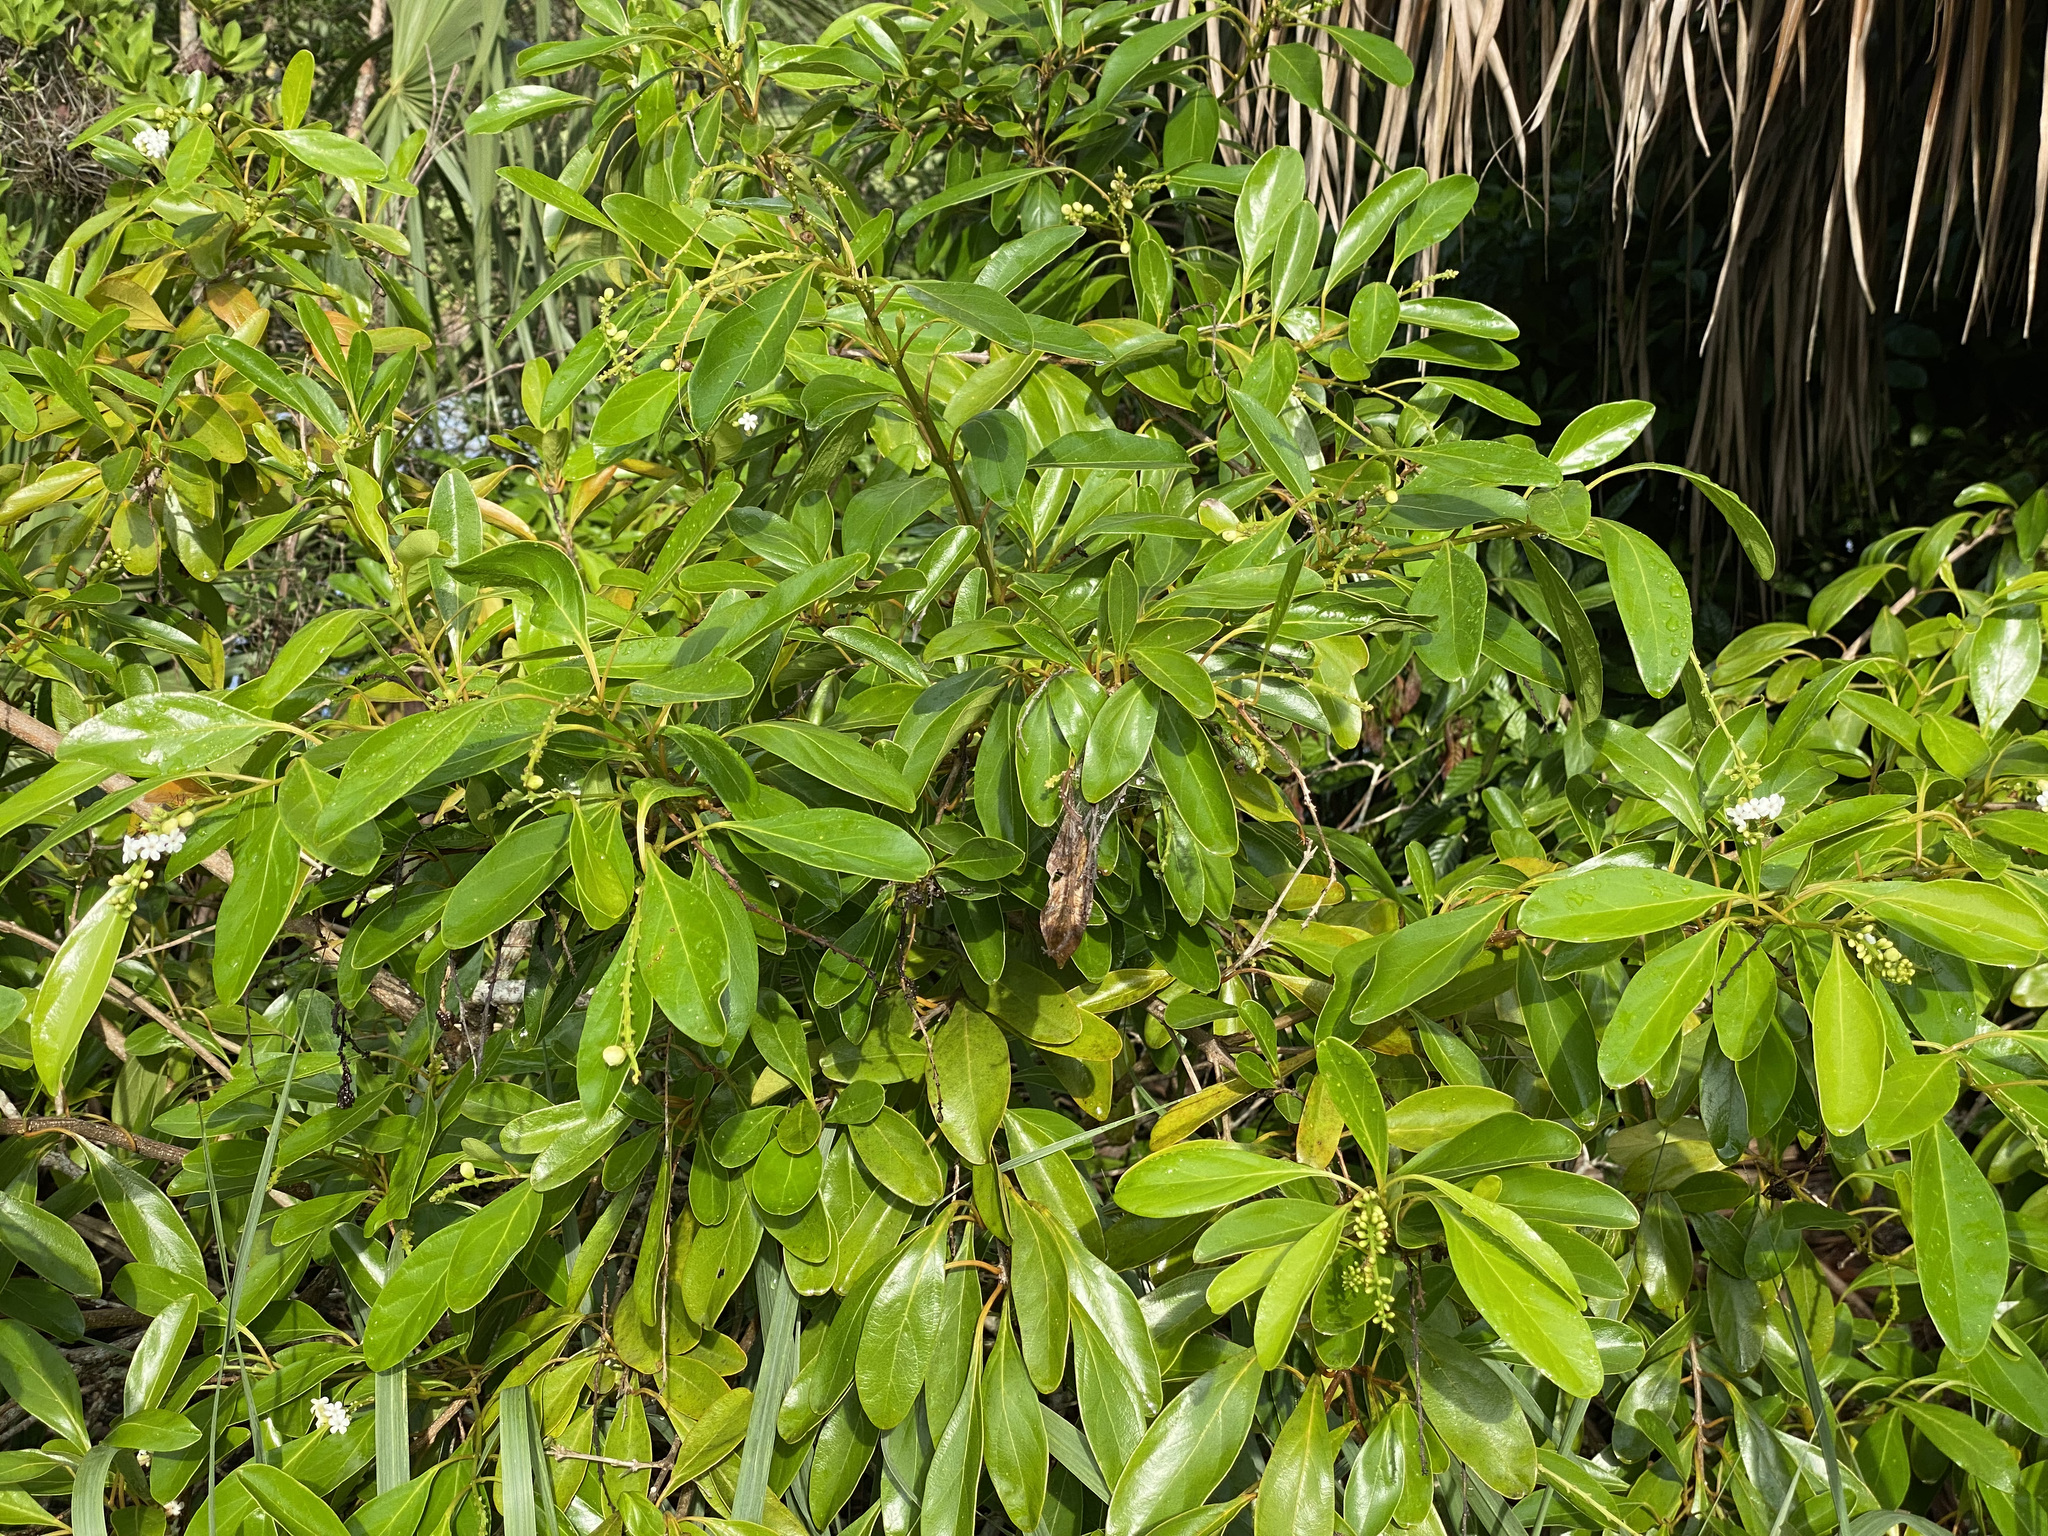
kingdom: Plantae
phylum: Tracheophyta
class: Magnoliopsida
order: Lamiales
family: Verbenaceae
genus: Citharexylum
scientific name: Citharexylum spinosum
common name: Fiddlewood
